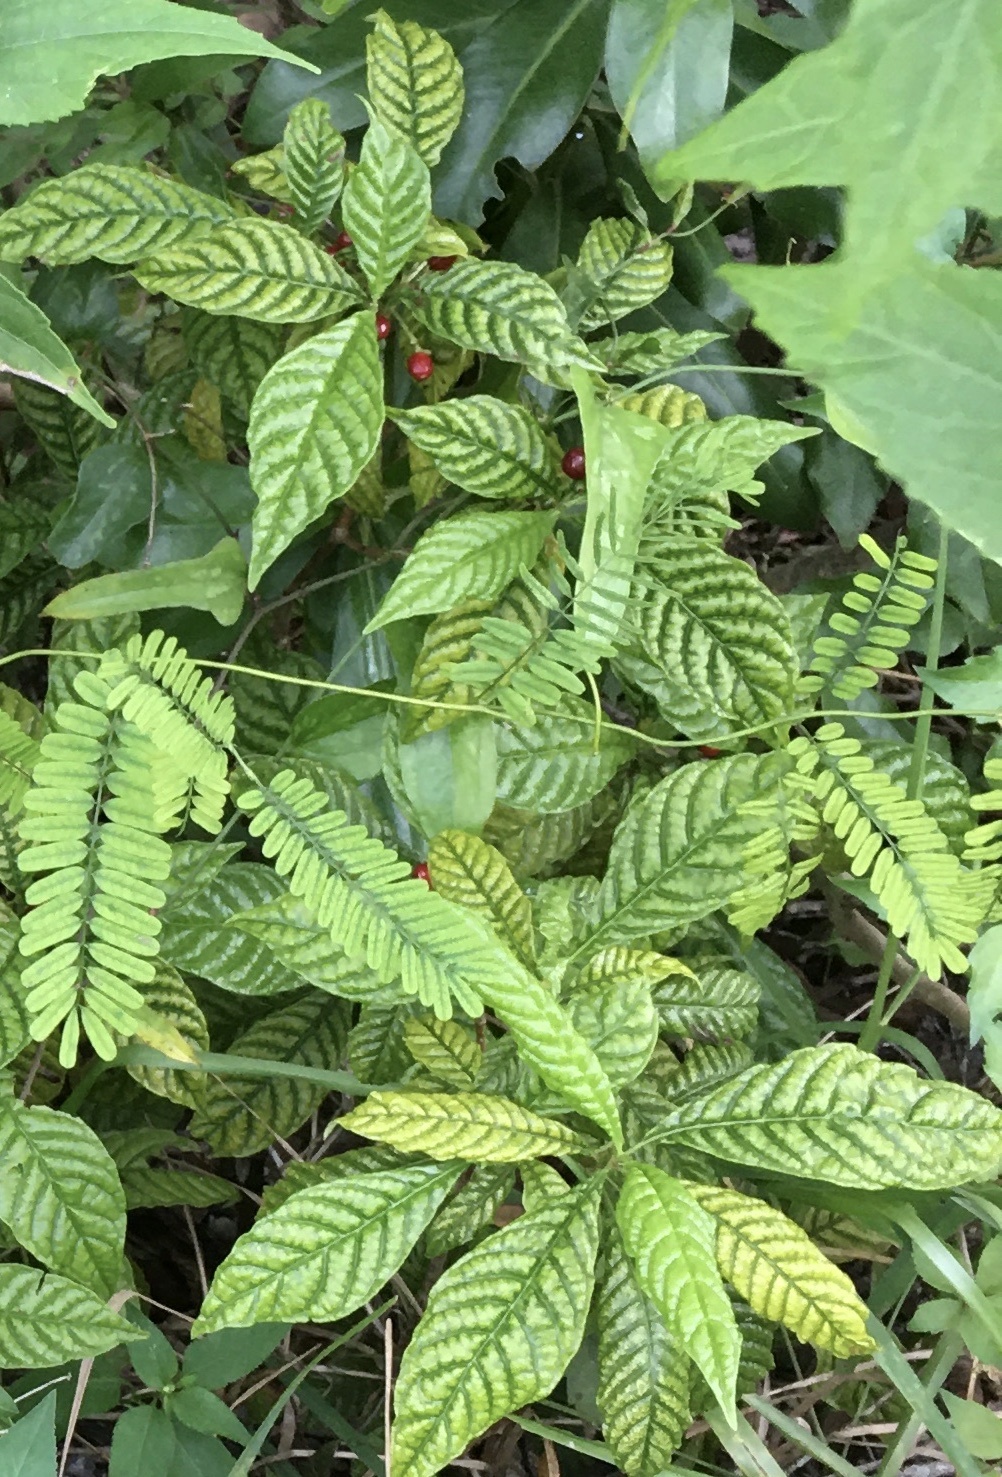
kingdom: Plantae
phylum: Tracheophyta
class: Magnoliopsida
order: Gentianales
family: Rubiaceae
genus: Psychotria
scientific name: Psychotria nervosa
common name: Bastard cankerberry
